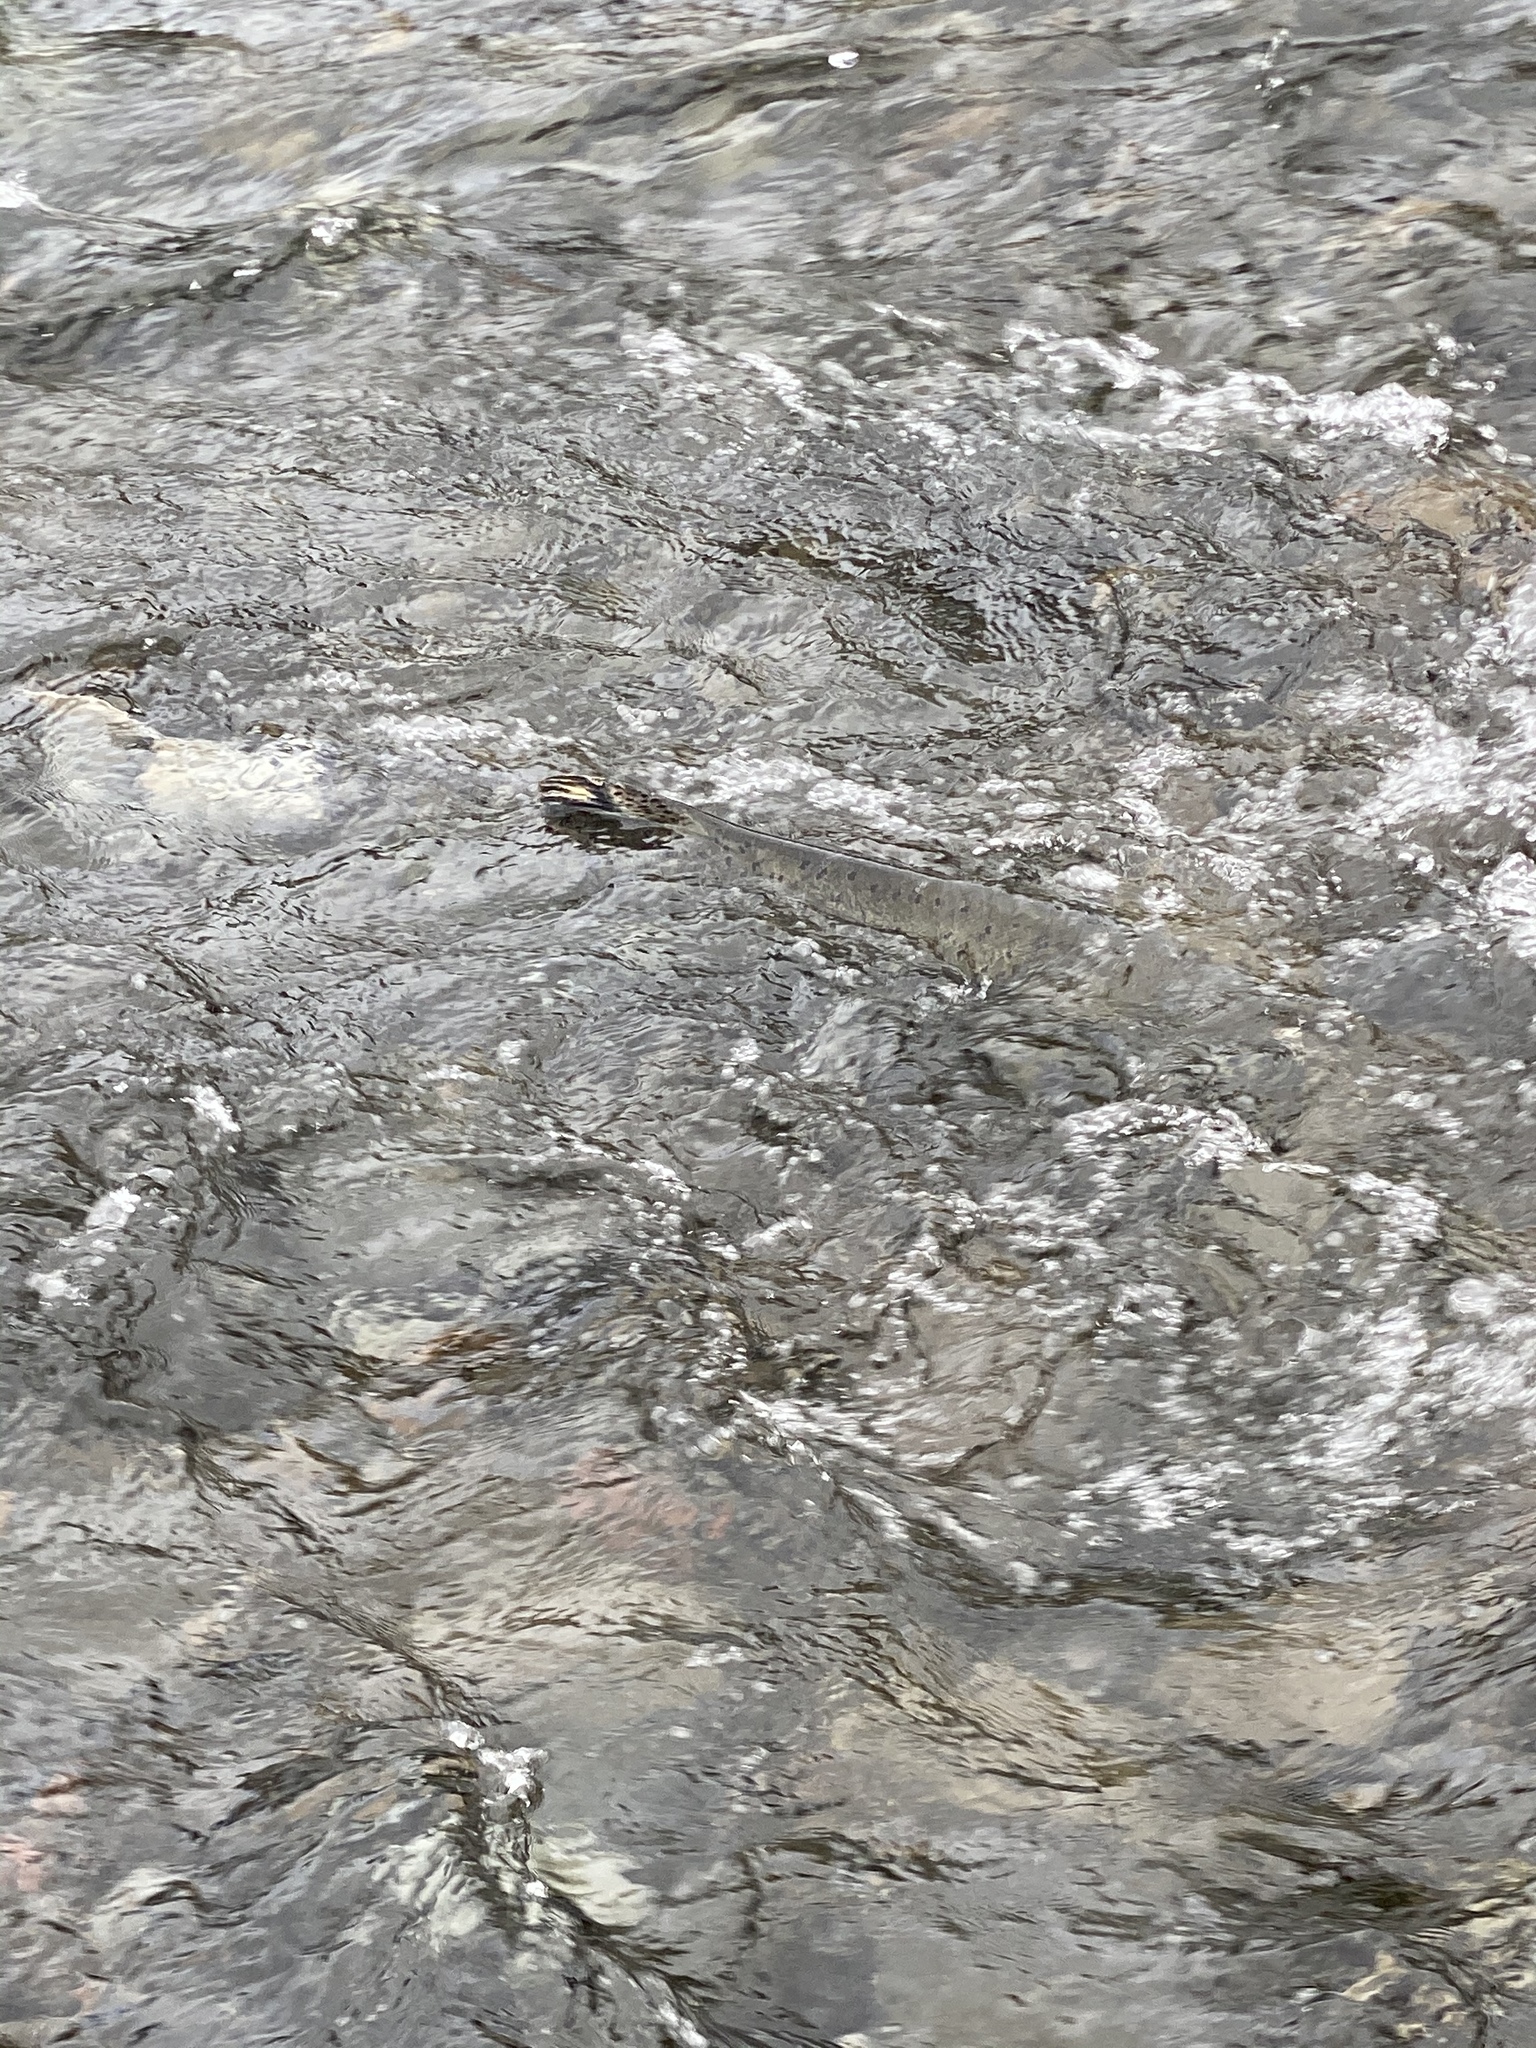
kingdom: Animalia
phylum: Chordata
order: Salmoniformes
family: Salmonidae
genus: Oncorhynchus
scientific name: Oncorhynchus tshawytscha
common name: Chinook salmon
